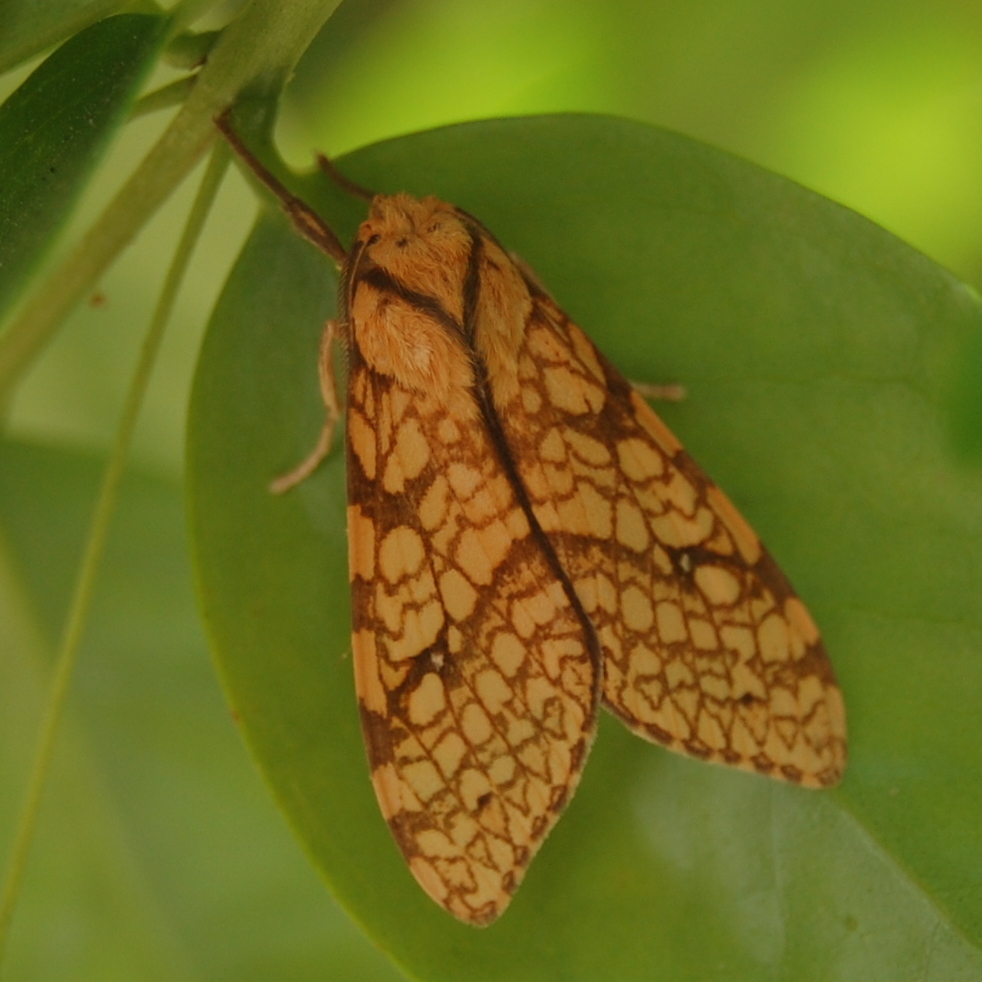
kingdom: Animalia
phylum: Arthropoda
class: Insecta
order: Lepidoptera
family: Erebidae
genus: Lophocampa
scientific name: Lophocampa catenulata
